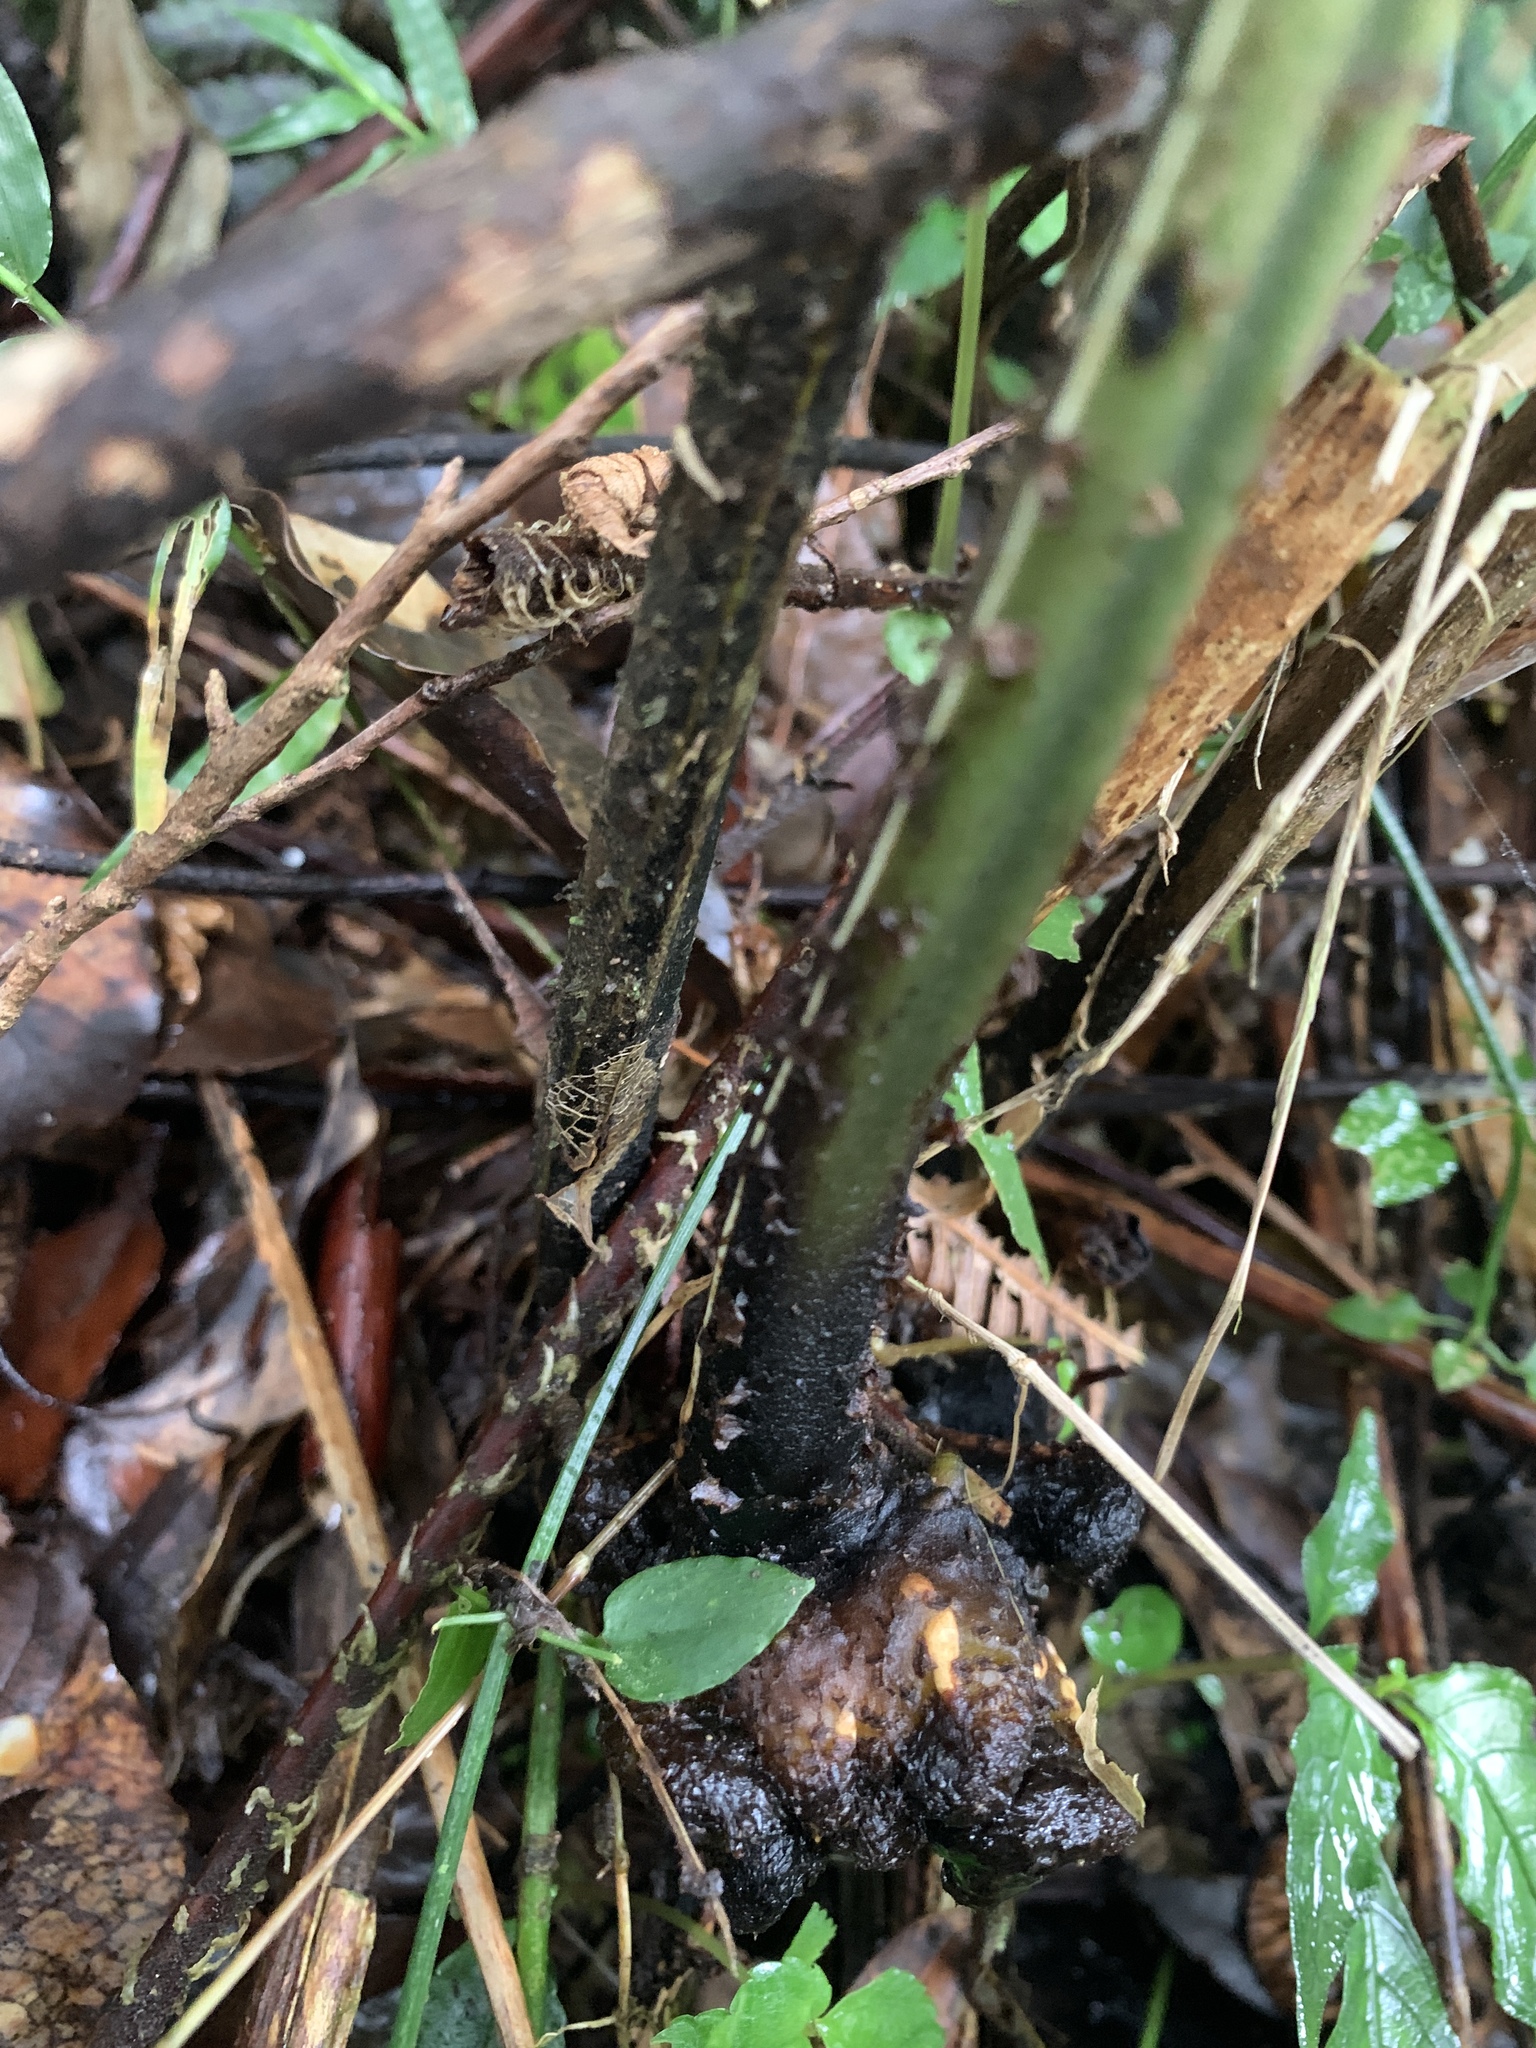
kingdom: Plantae
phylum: Tracheophyta
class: Polypodiopsida
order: Polypodiales
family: Athyriaceae
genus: Diplazium
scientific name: Diplazium doederleinii
